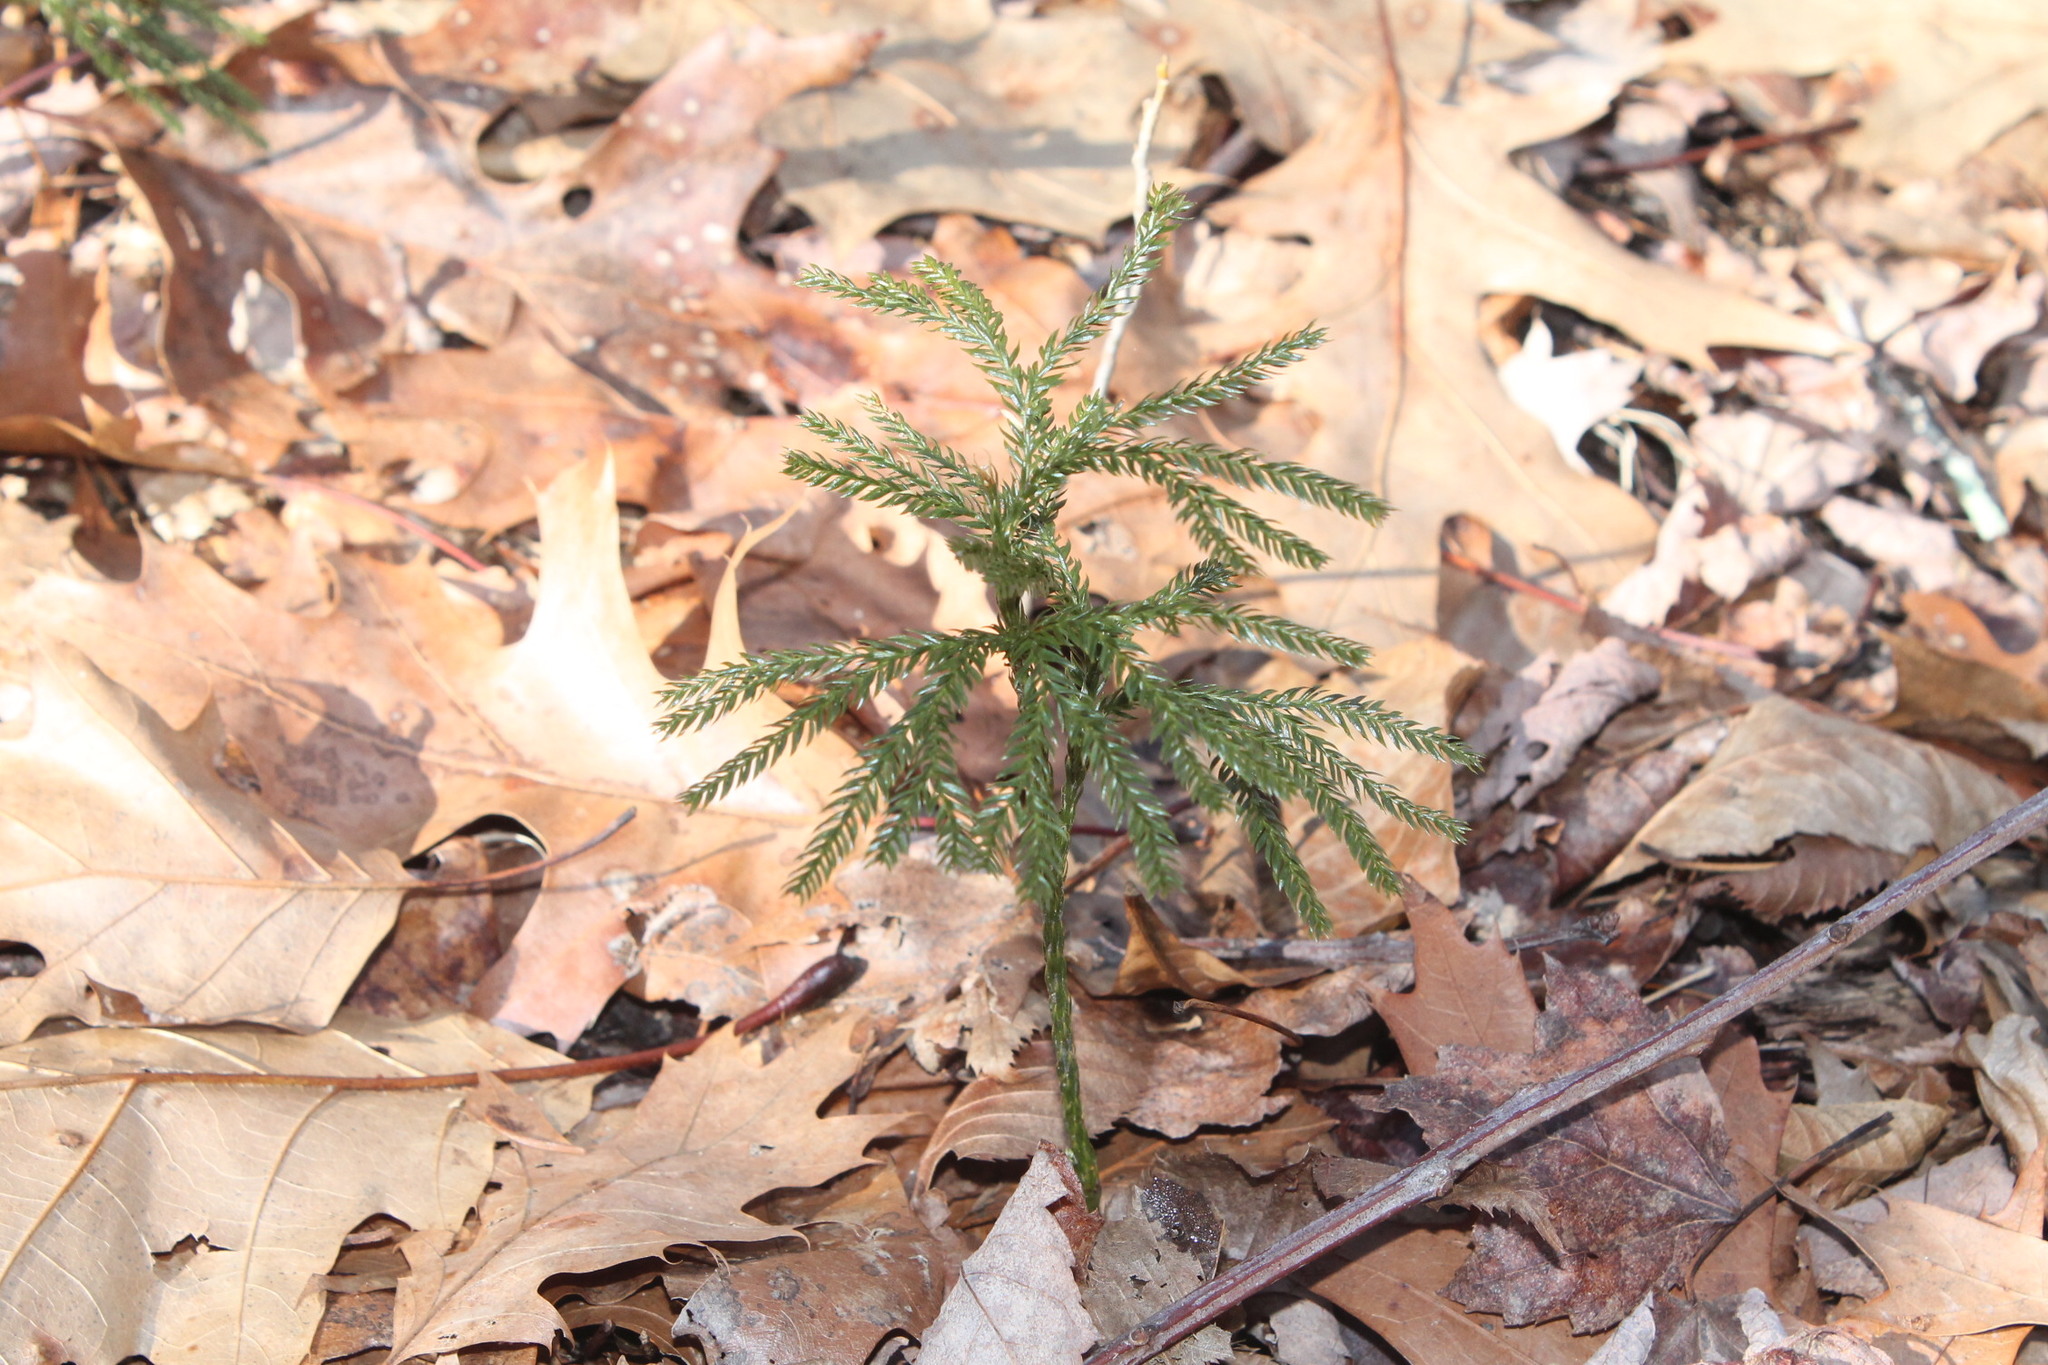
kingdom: Plantae
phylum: Tracheophyta
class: Lycopodiopsida
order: Lycopodiales
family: Lycopodiaceae
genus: Dendrolycopodium
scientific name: Dendrolycopodium obscurum
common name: Common ground-pine
